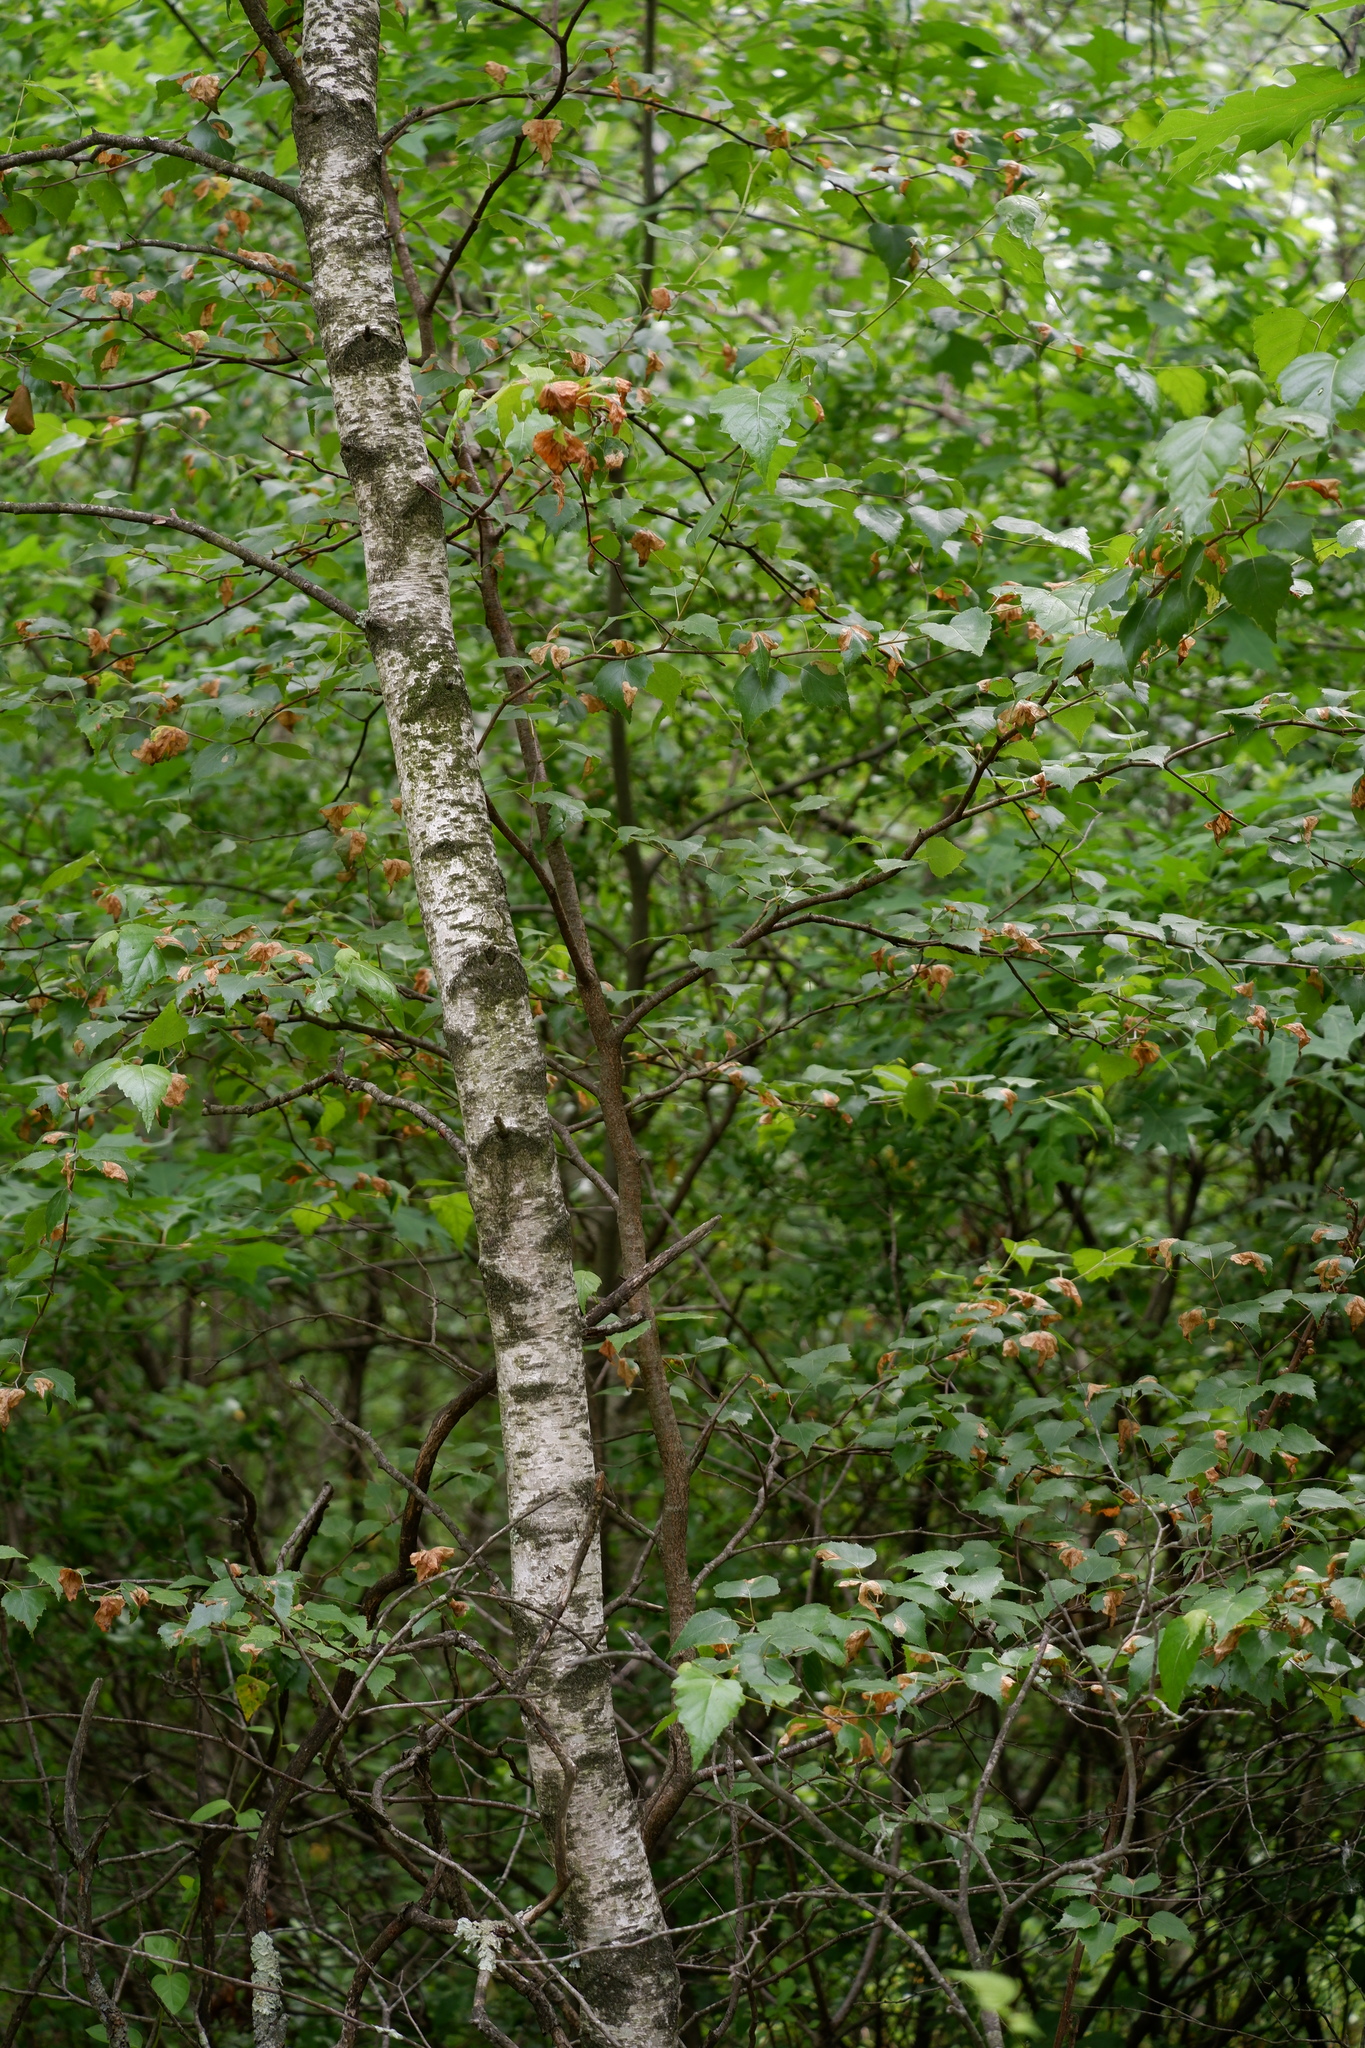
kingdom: Plantae
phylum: Tracheophyta
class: Magnoliopsida
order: Fagales
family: Betulaceae
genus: Betula
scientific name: Betula populifolia
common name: Fire birch
